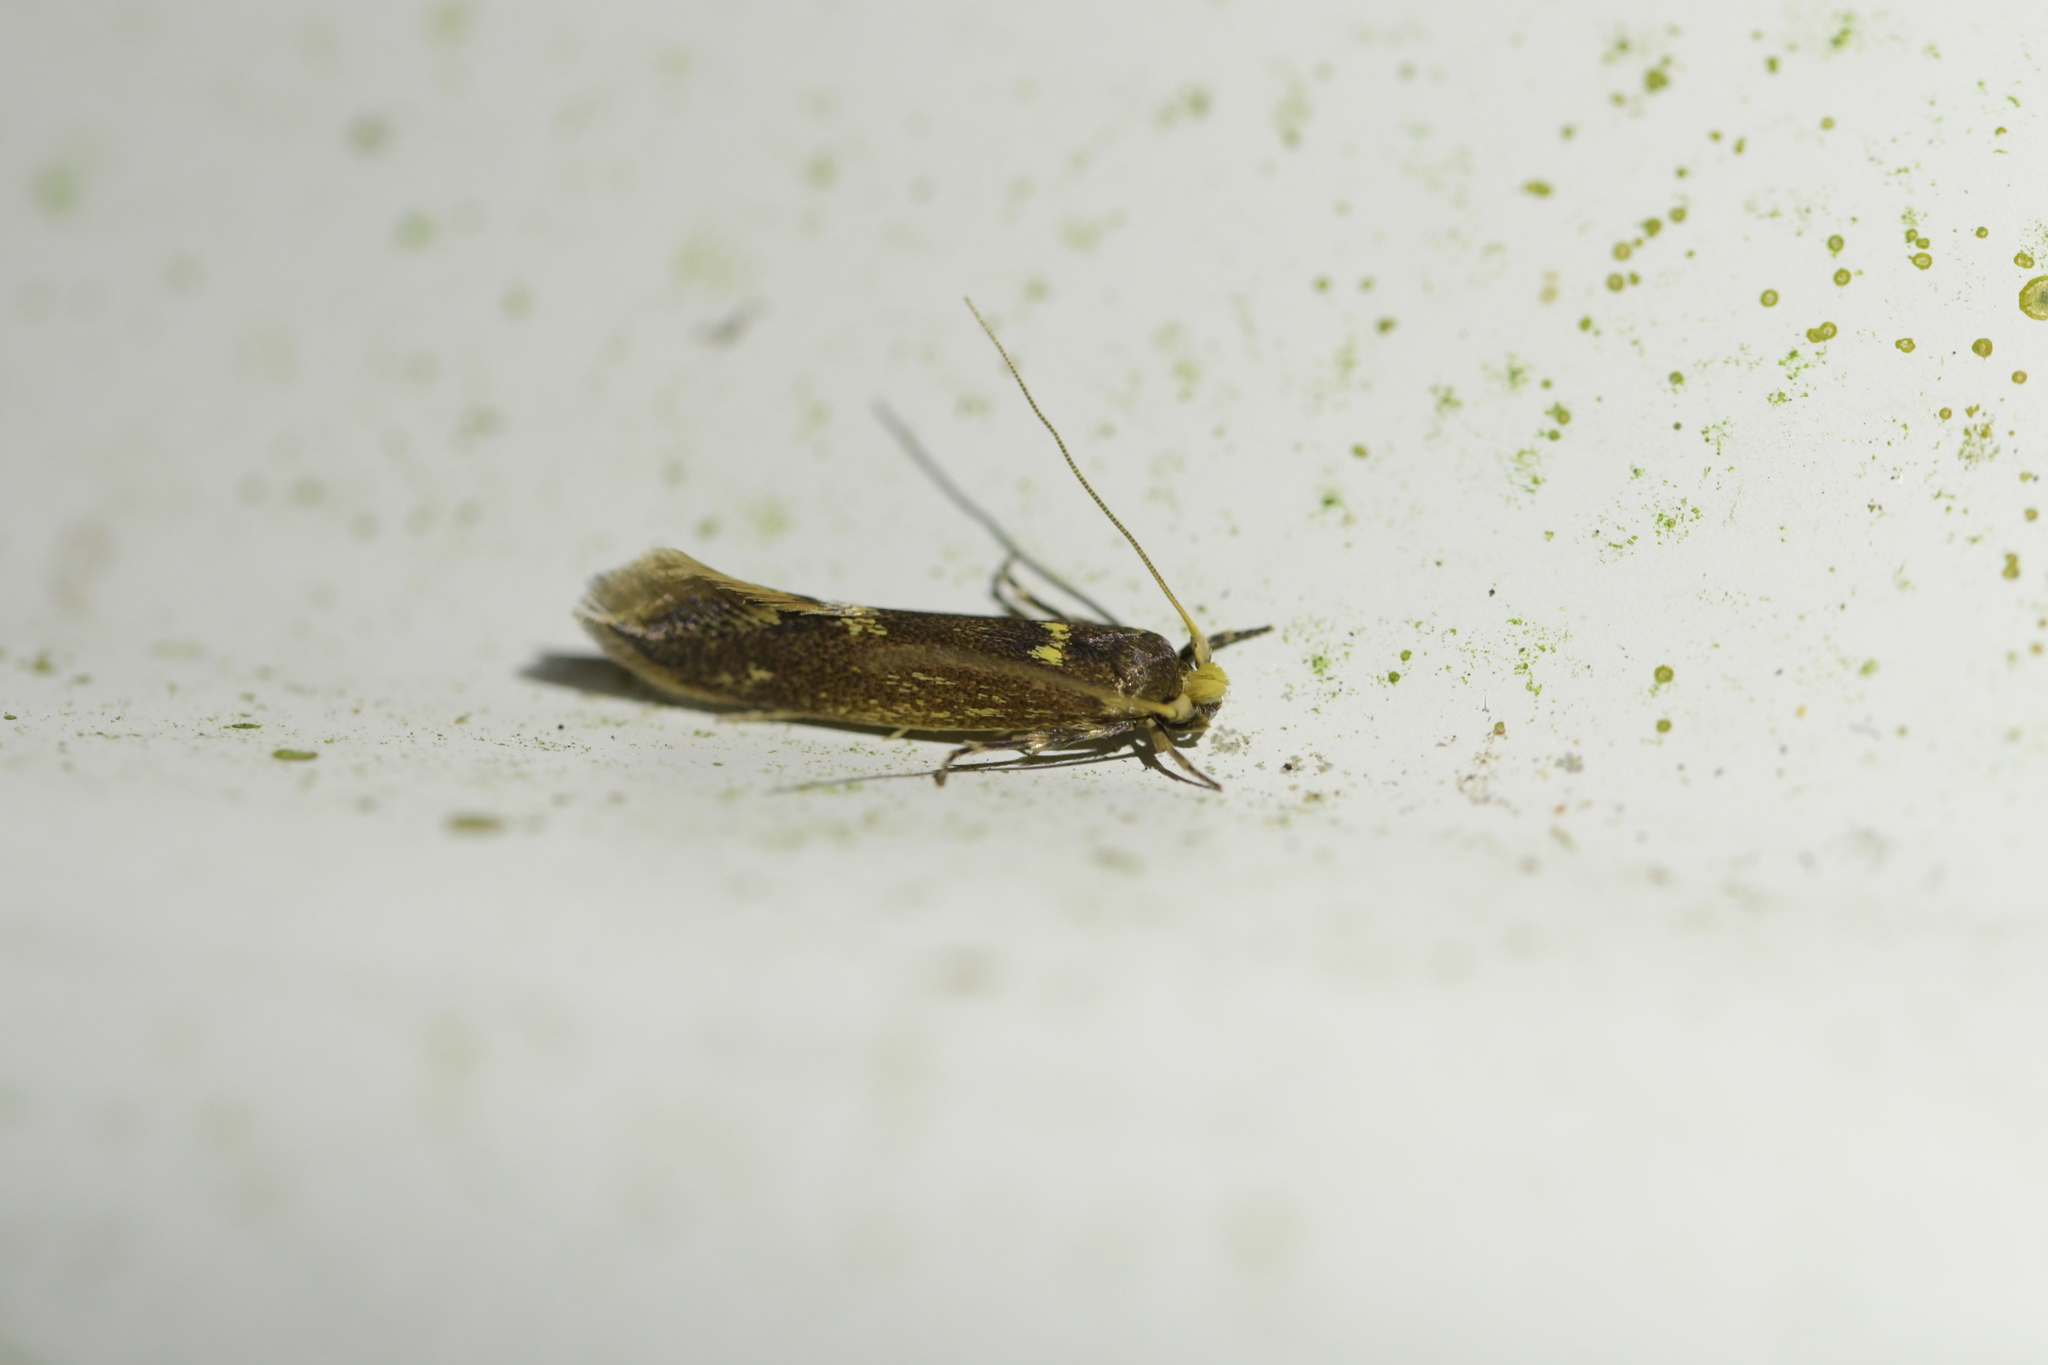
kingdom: Animalia
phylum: Arthropoda
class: Insecta
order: Lepidoptera
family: Tineidae
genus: Opogona
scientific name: Opogona omoscopa
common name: Moth
